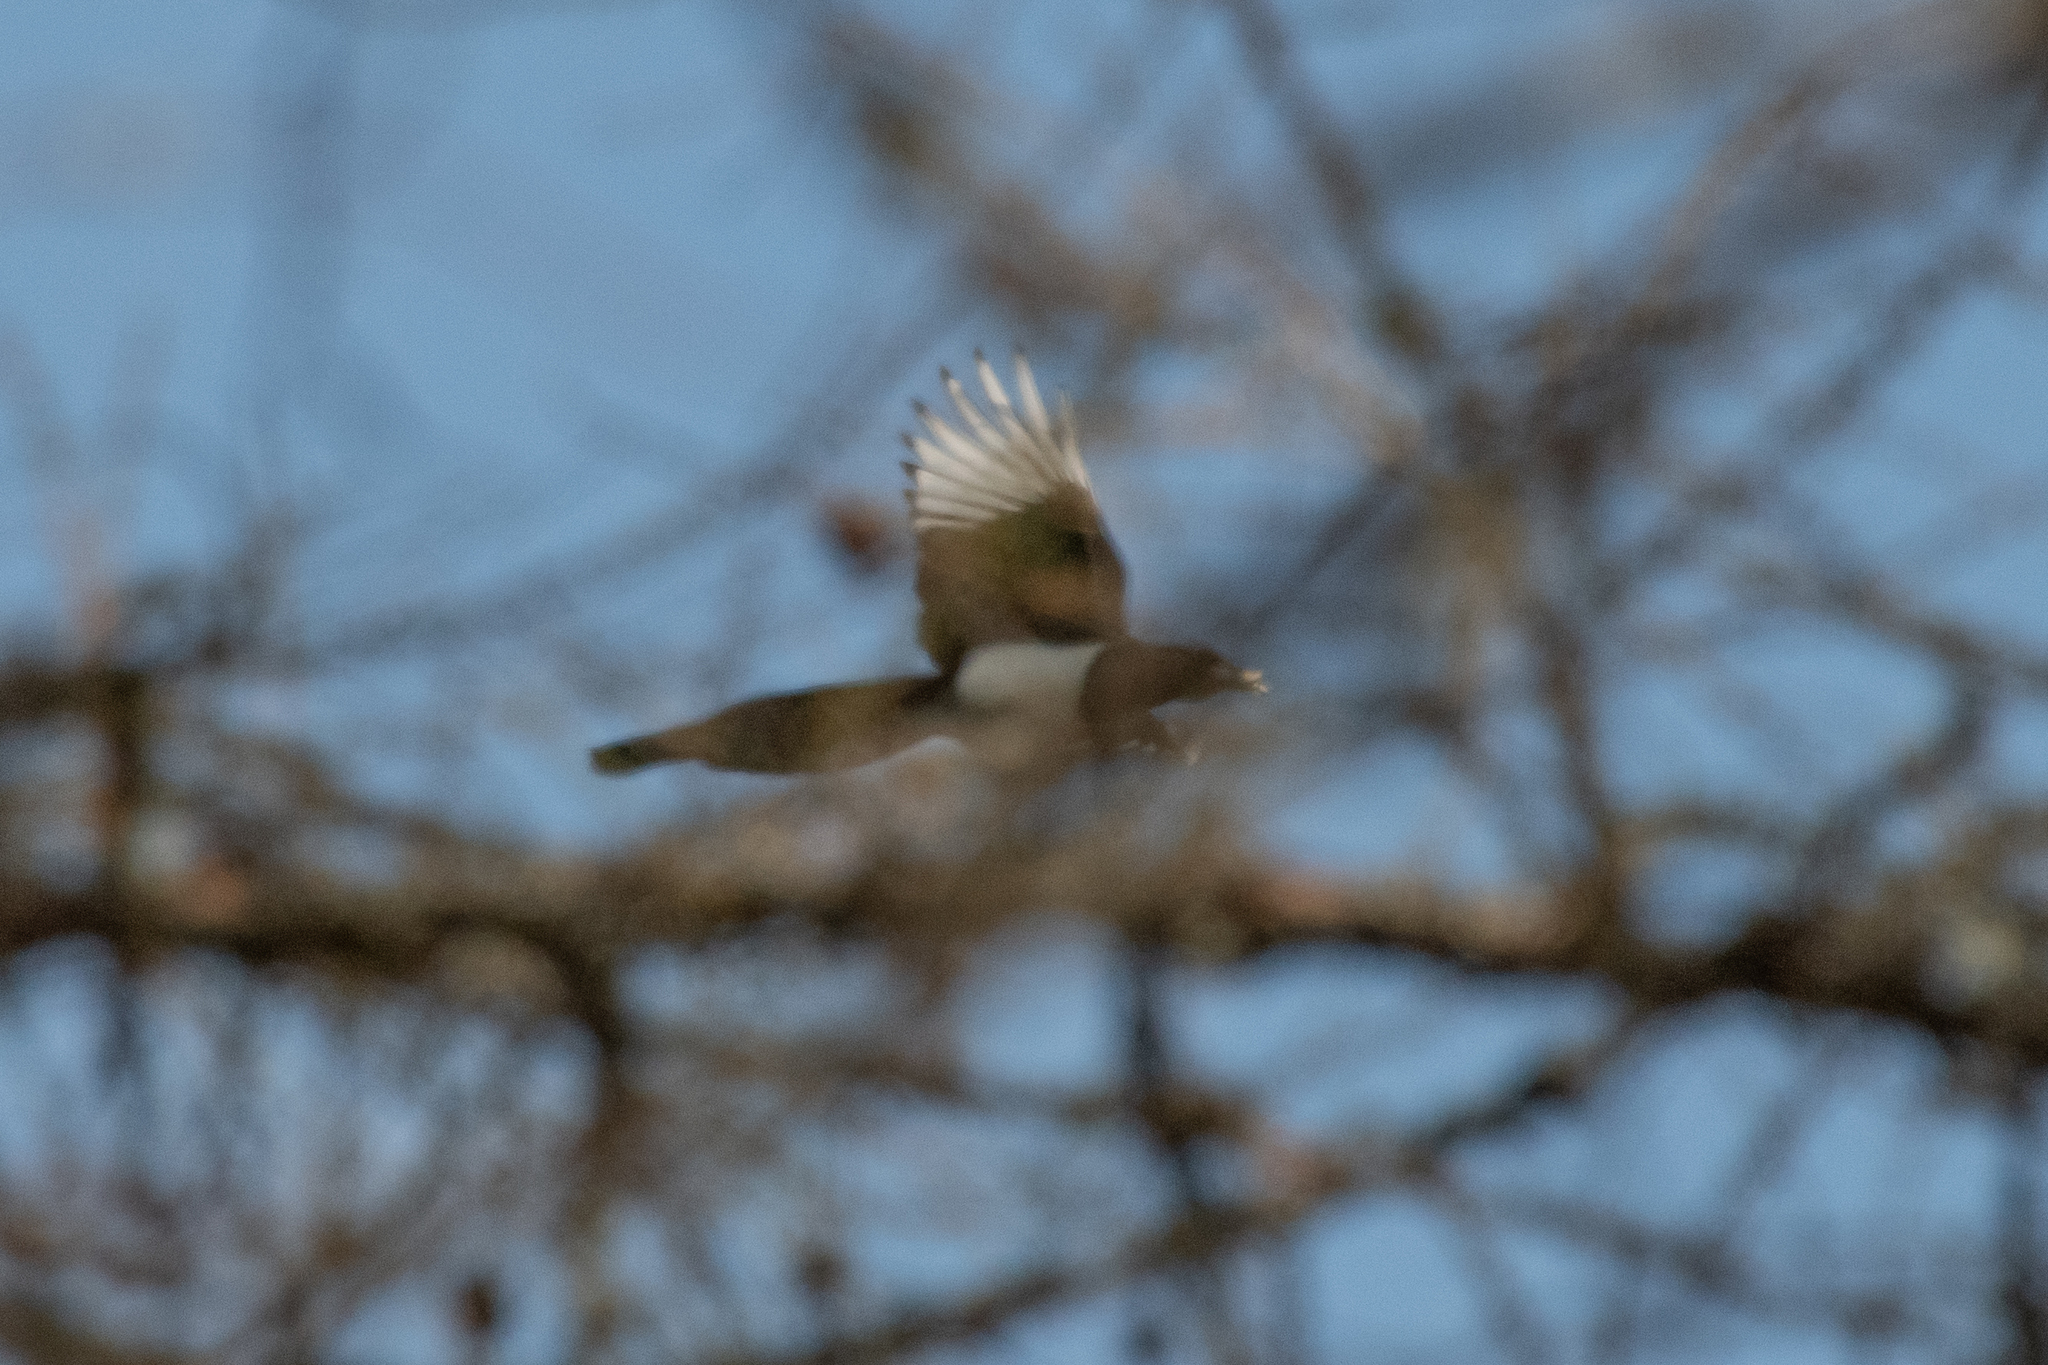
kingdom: Animalia
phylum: Chordata
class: Aves
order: Passeriformes
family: Corvidae
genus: Pica
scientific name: Pica pica
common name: Eurasian magpie
